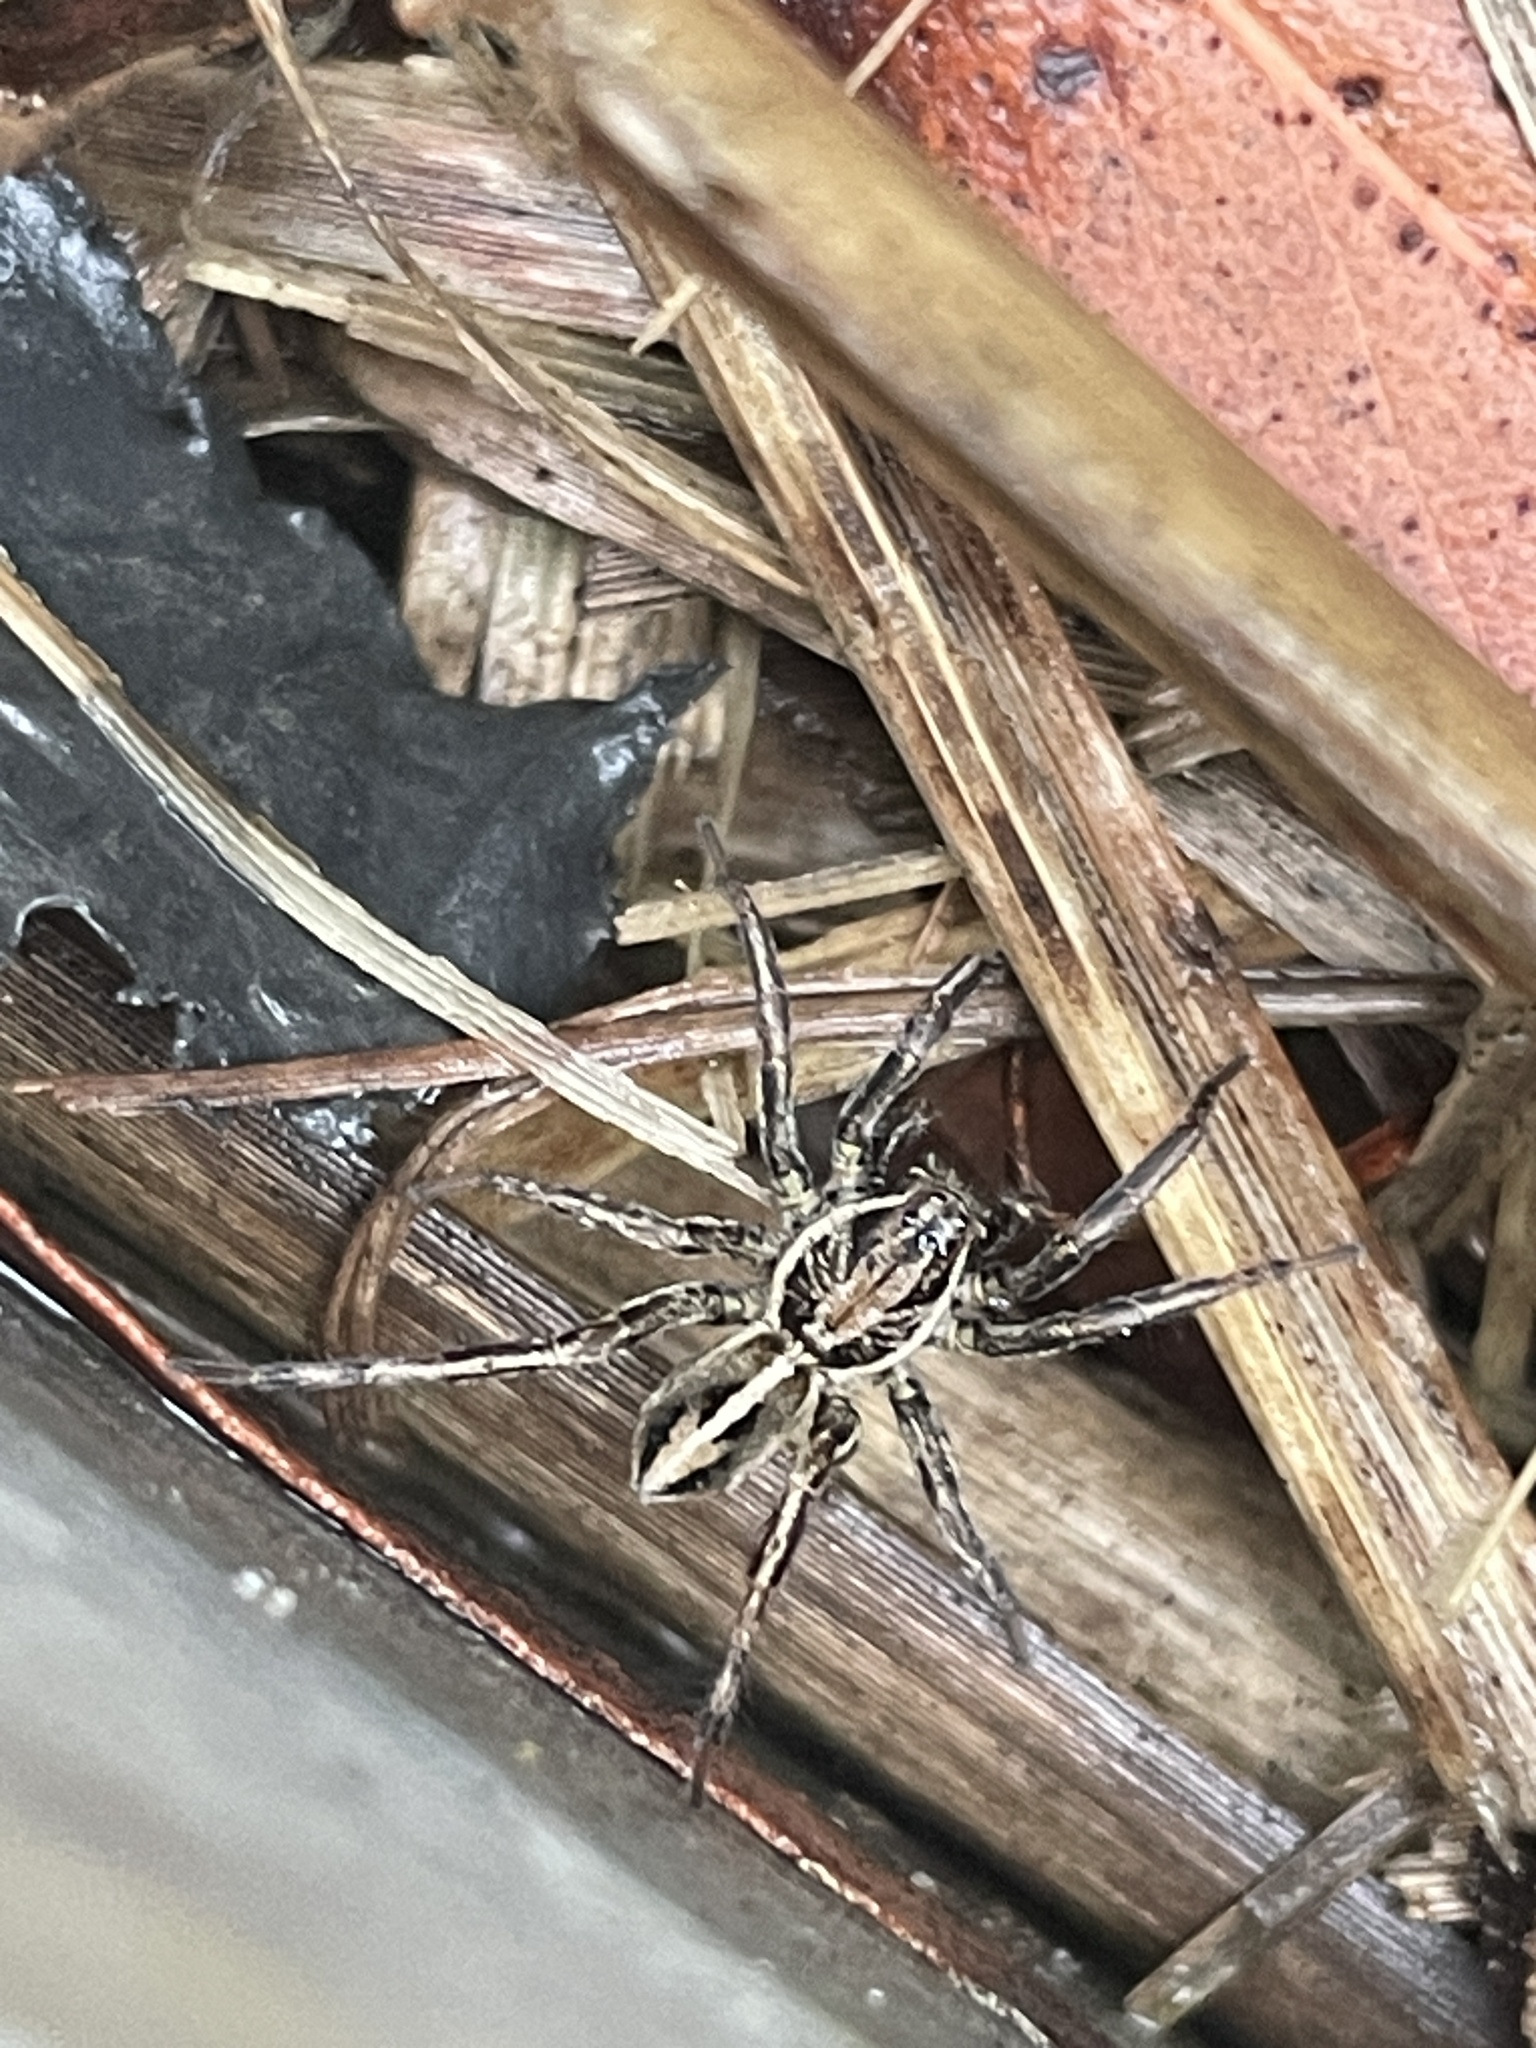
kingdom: Animalia
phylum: Arthropoda
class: Arachnida
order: Araneae
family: Lycosidae
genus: Artoriopsis
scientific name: Artoriopsis expolita
